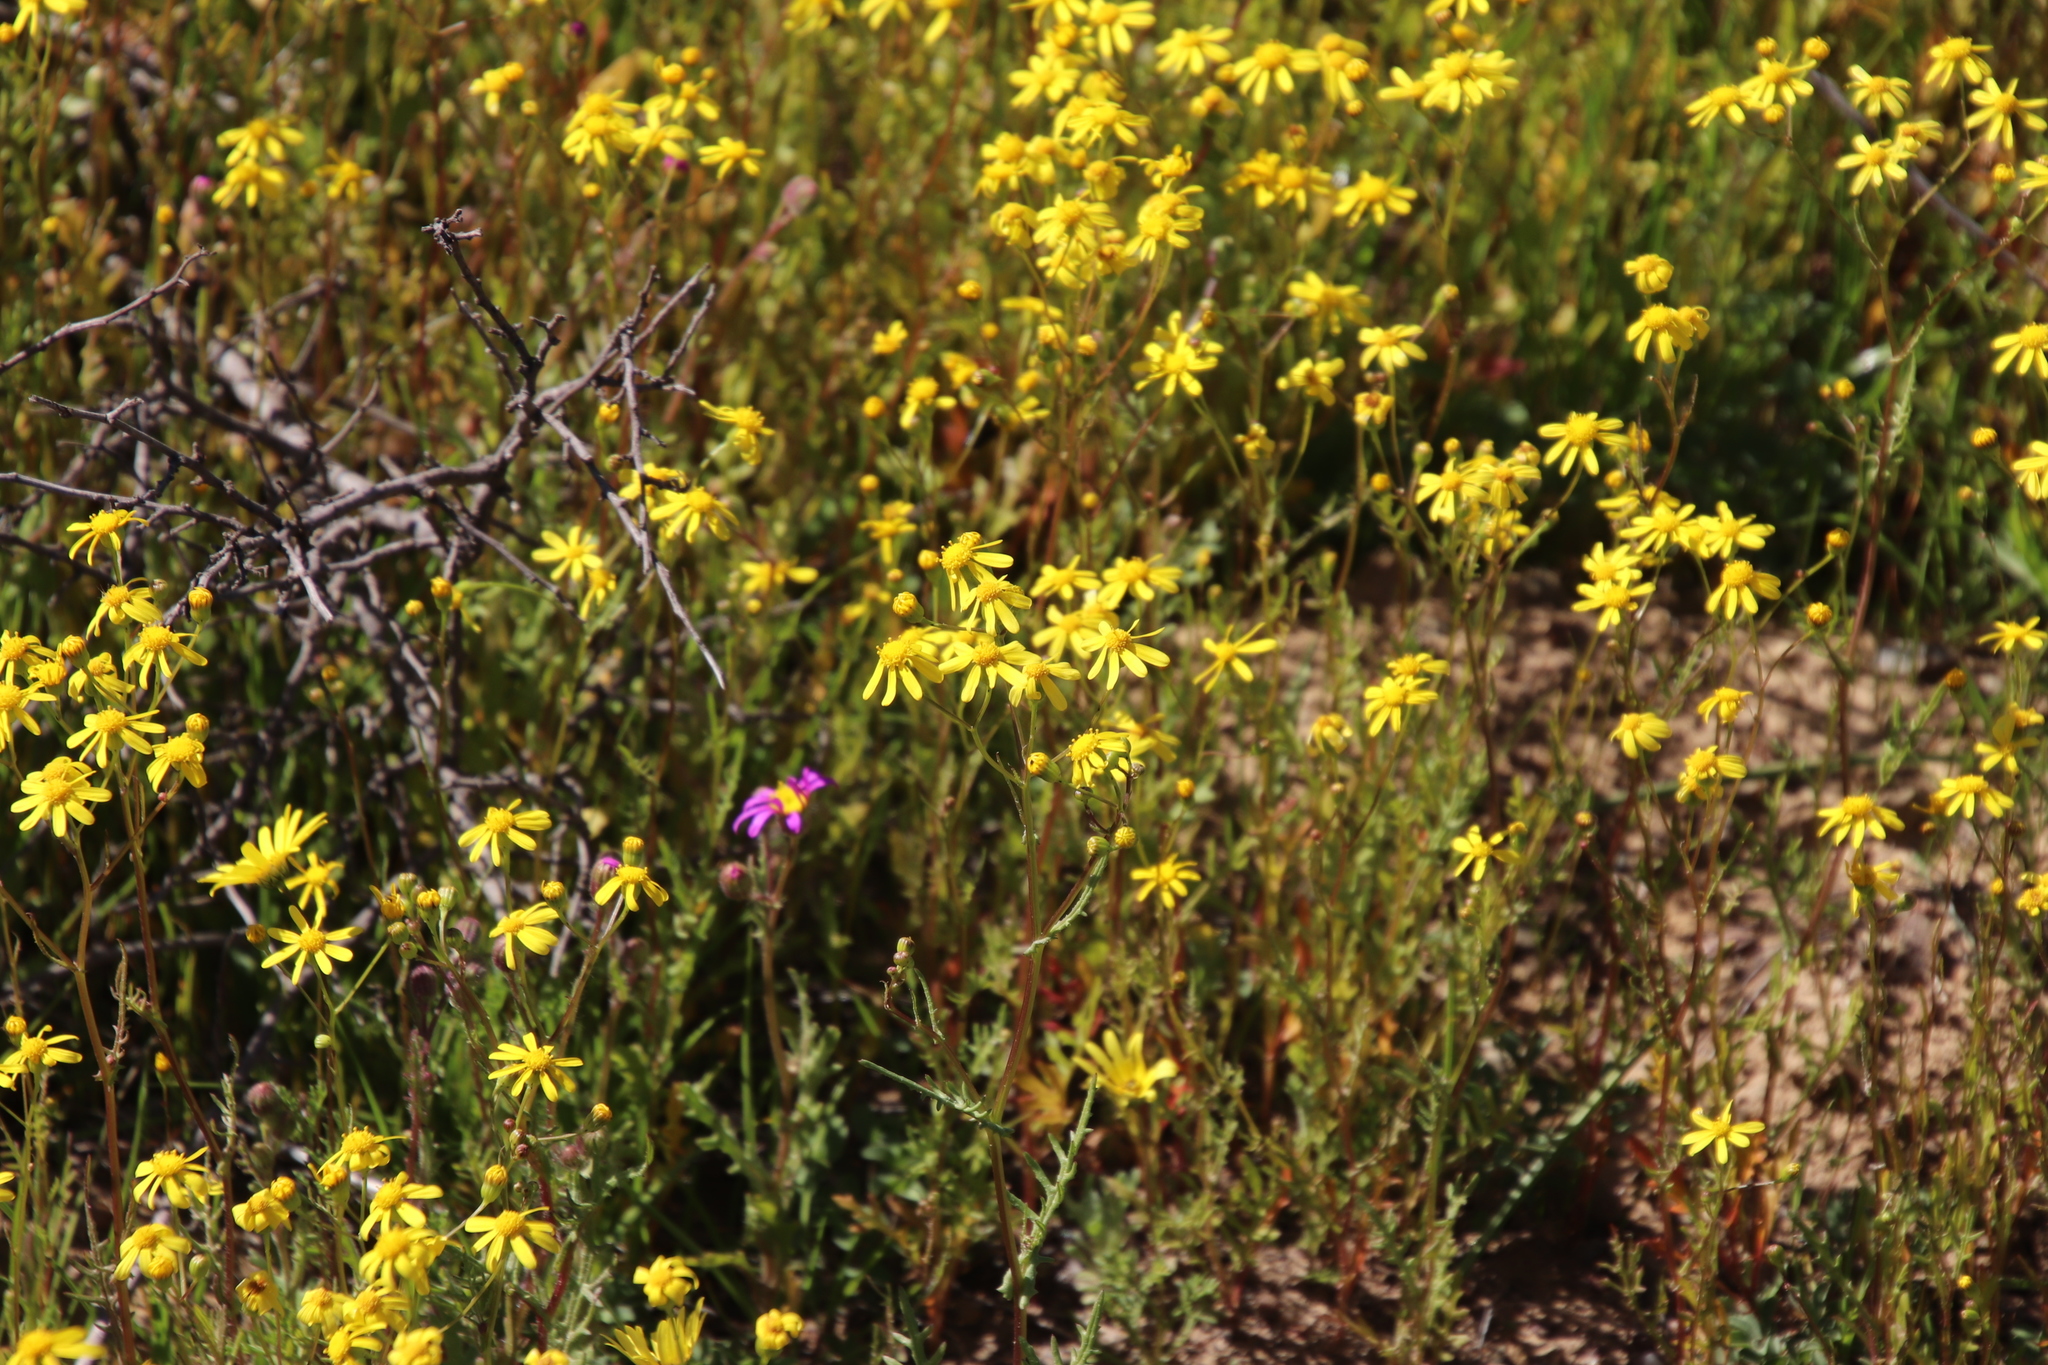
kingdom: Plantae
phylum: Tracheophyta
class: Magnoliopsida
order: Asterales
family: Asteraceae
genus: Senecio
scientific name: Senecio abruptus
